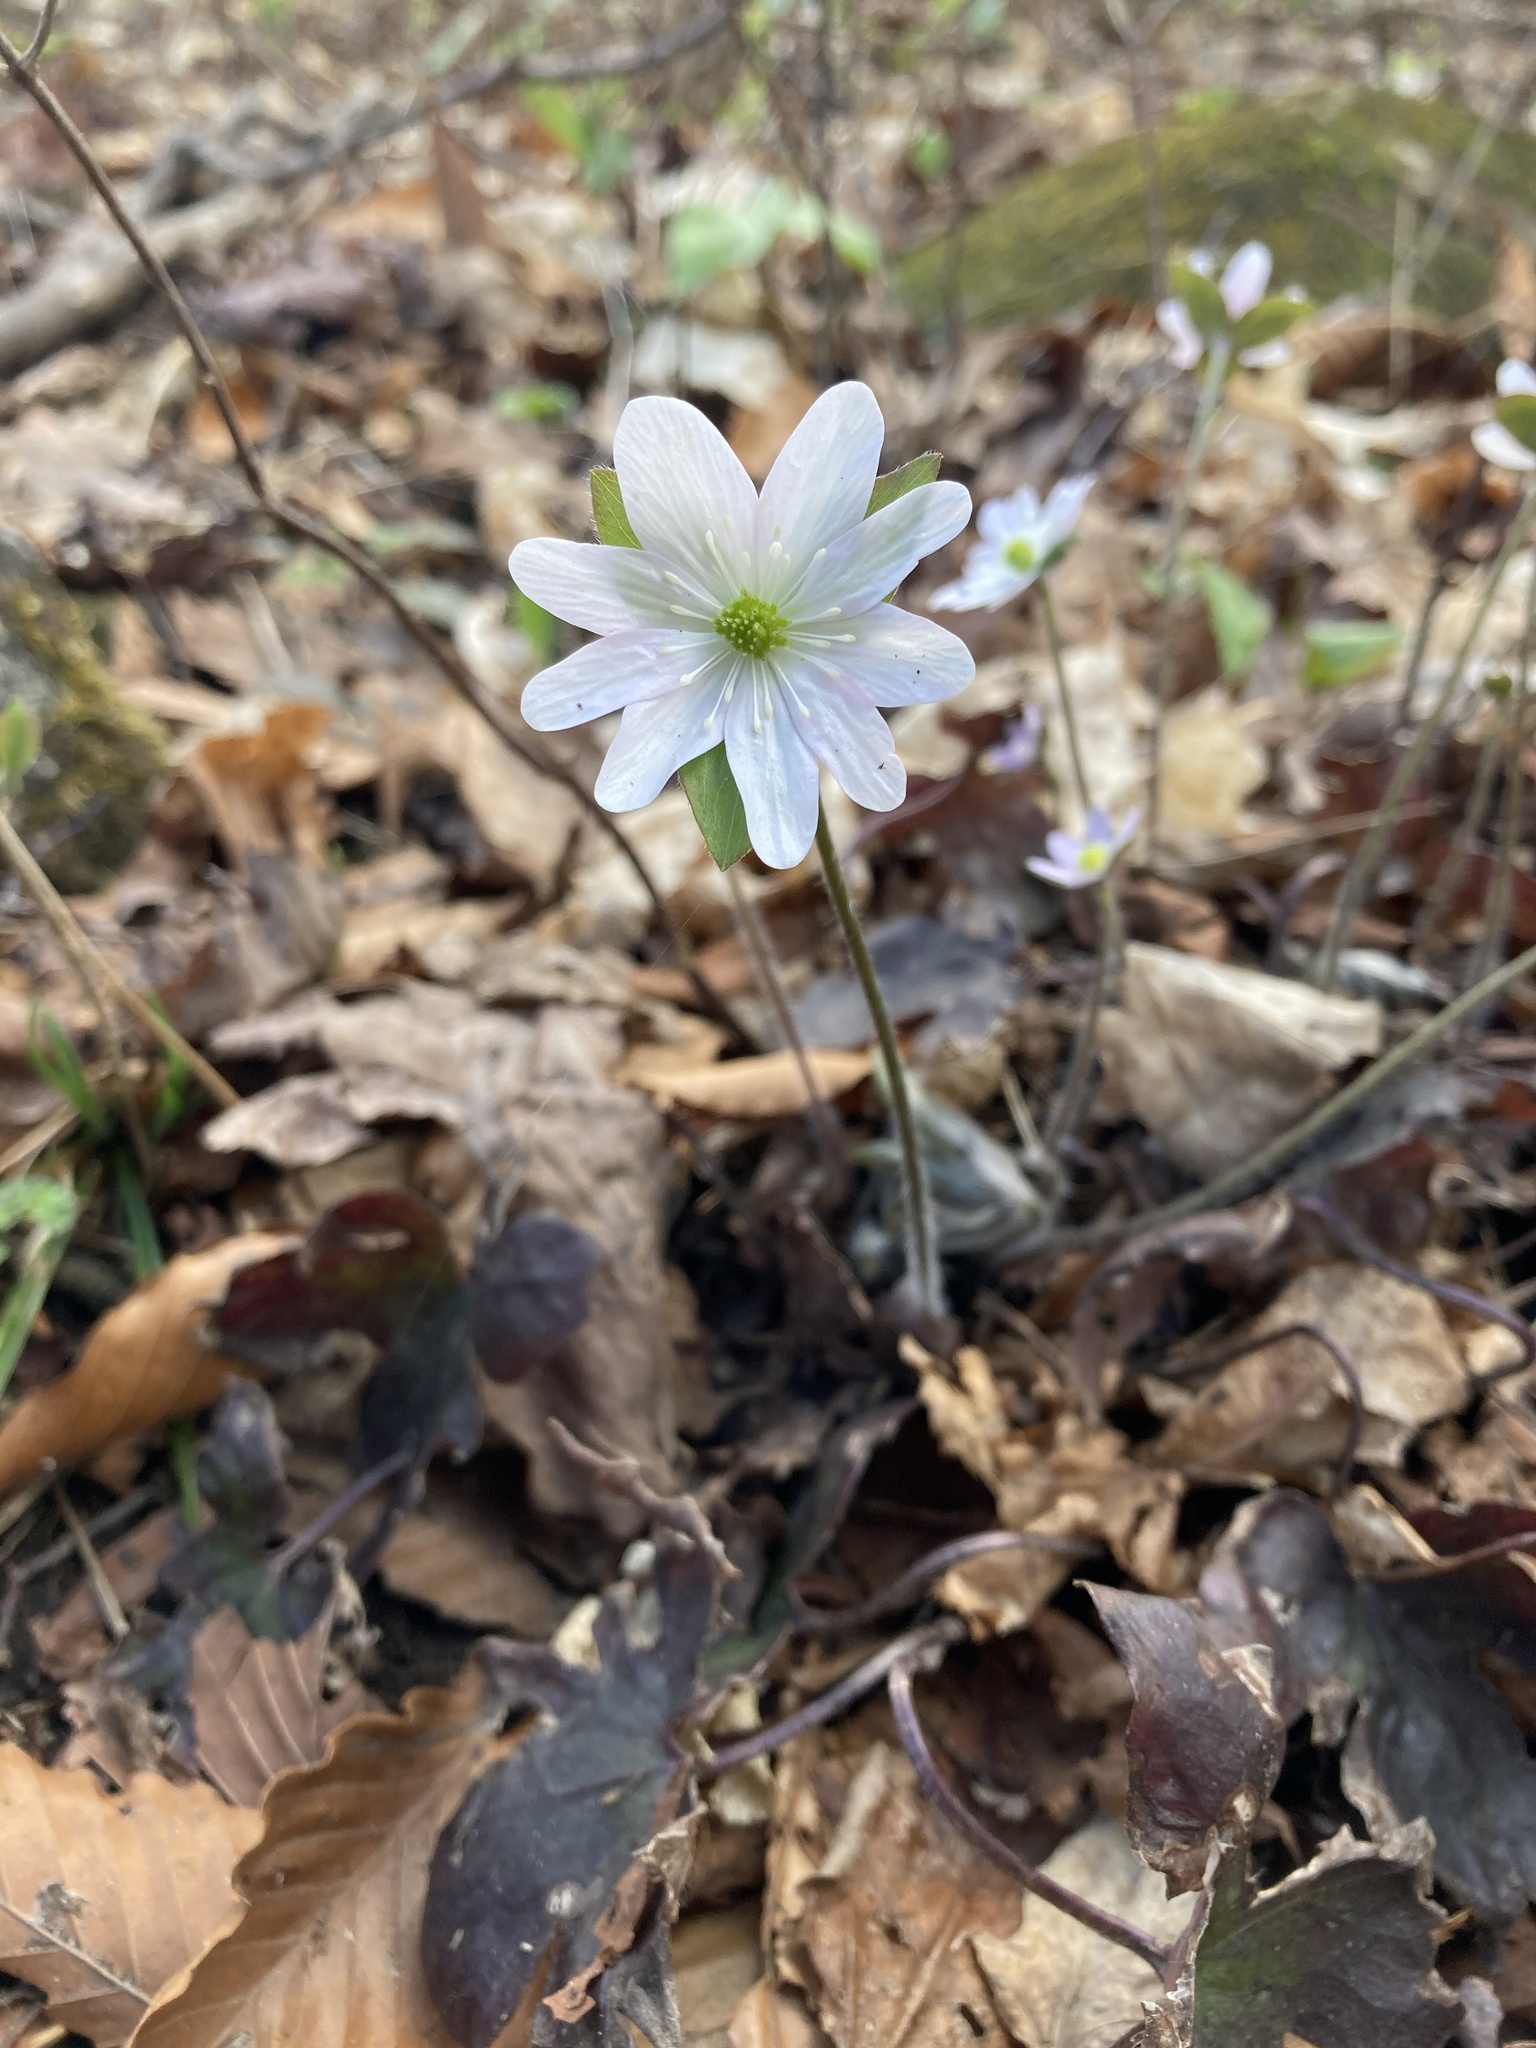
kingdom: Plantae
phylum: Tracheophyta
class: Magnoliopsida
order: Ranunculales
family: Ranunculaceae
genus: Hepatica
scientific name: Hepatica acutiloba
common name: Sharp-lobed hepatica
